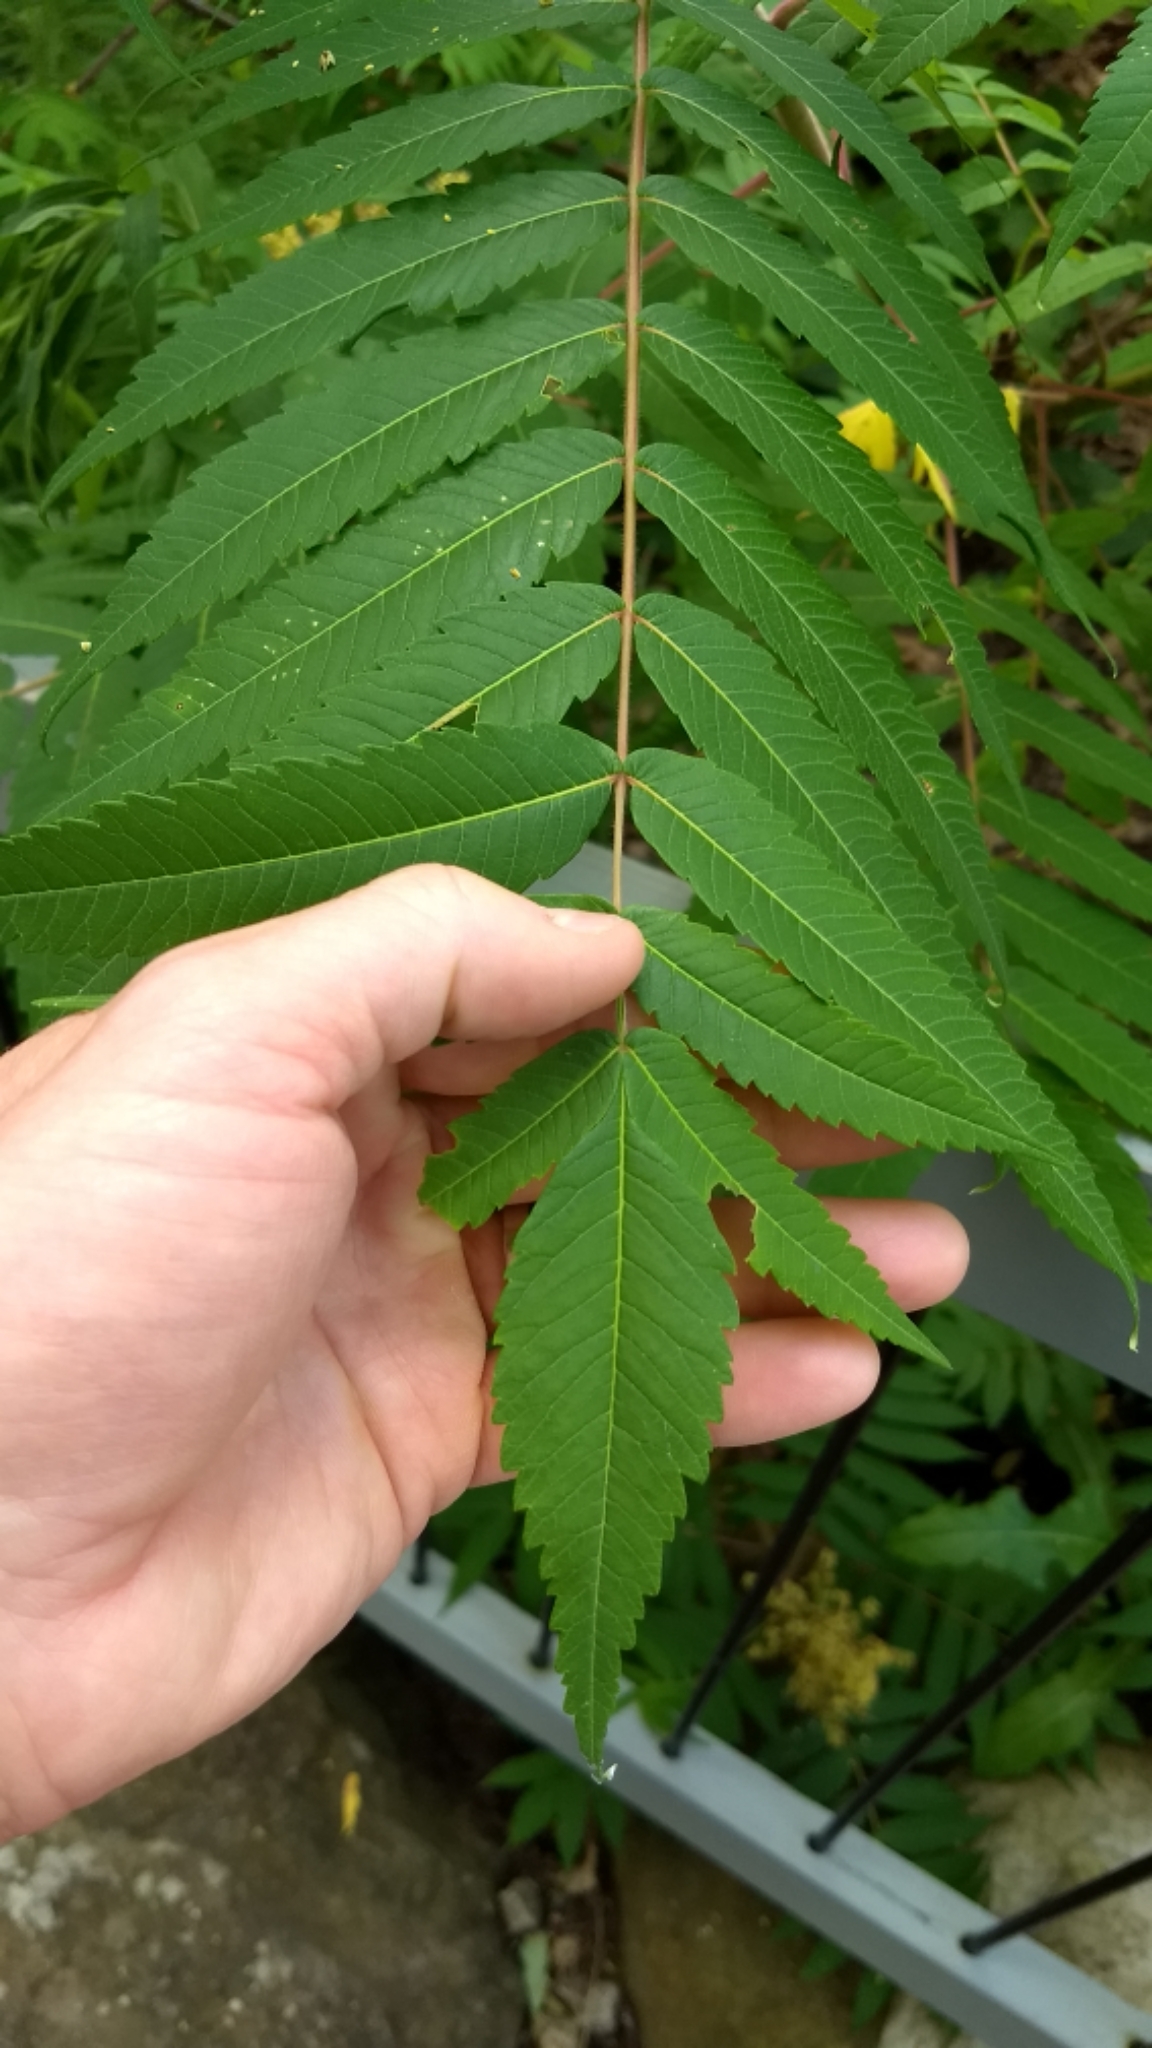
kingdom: Plantae
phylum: Tracheophyta
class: Magnoliopsida
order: Sapindales
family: Anacardiaceae
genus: Rhus
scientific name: Rhus typhina
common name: Staghorn sumac
